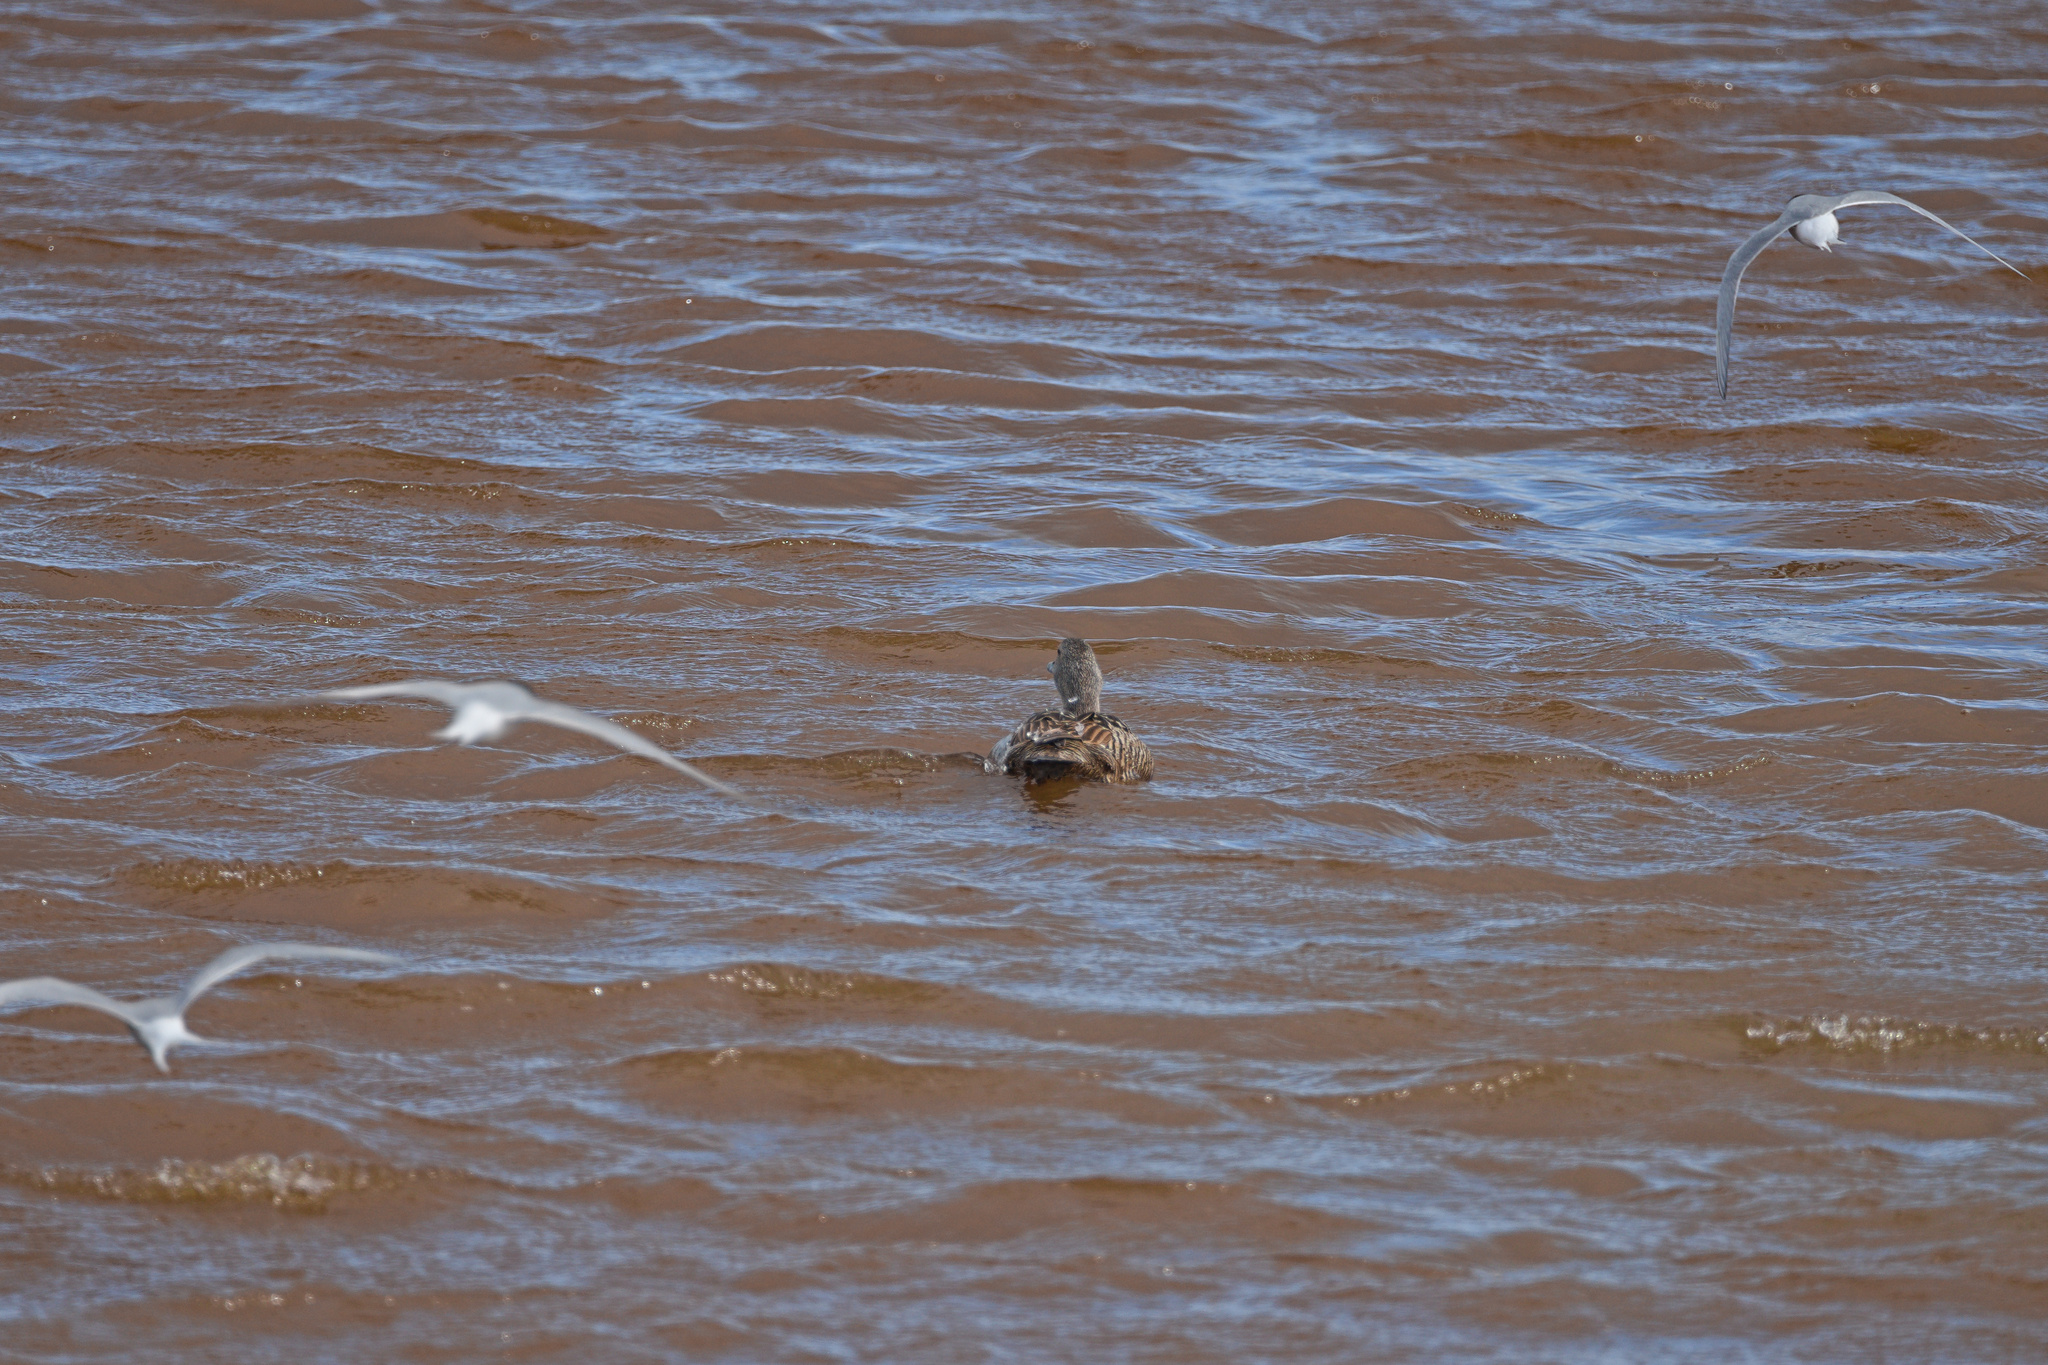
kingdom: Animalia
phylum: Chordata
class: Aves
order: Anseriformes
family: Anatidae
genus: Somateria
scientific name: Somateria mollissima
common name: Common eider
